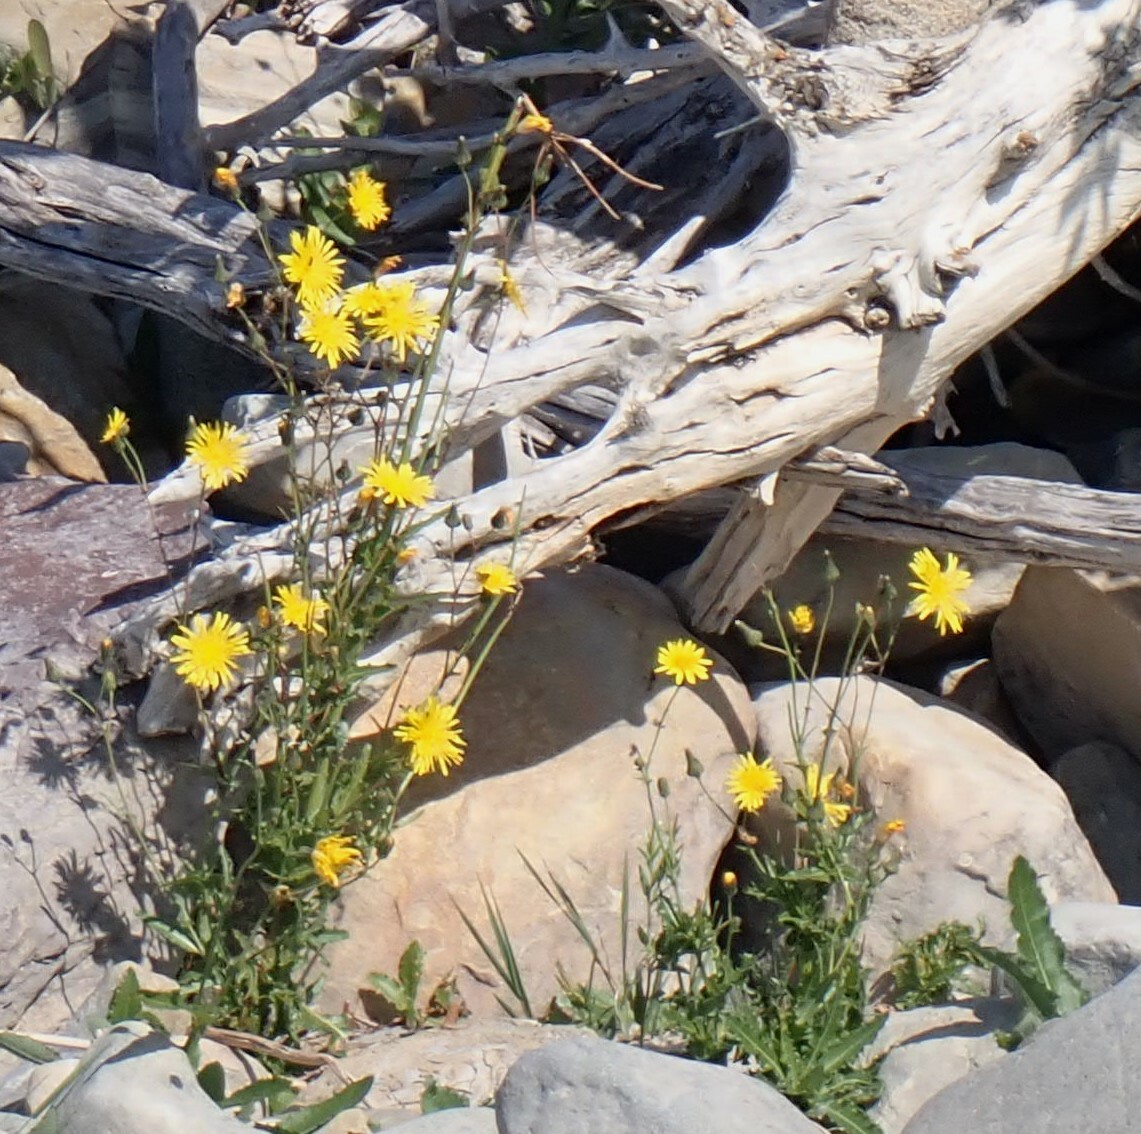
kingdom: Plantae
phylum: Tracheophyta
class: Magnoliopsida
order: Asterales
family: Asteraceae
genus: Sonchus
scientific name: Sonchus arvensis
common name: Perennial sow-thistle
